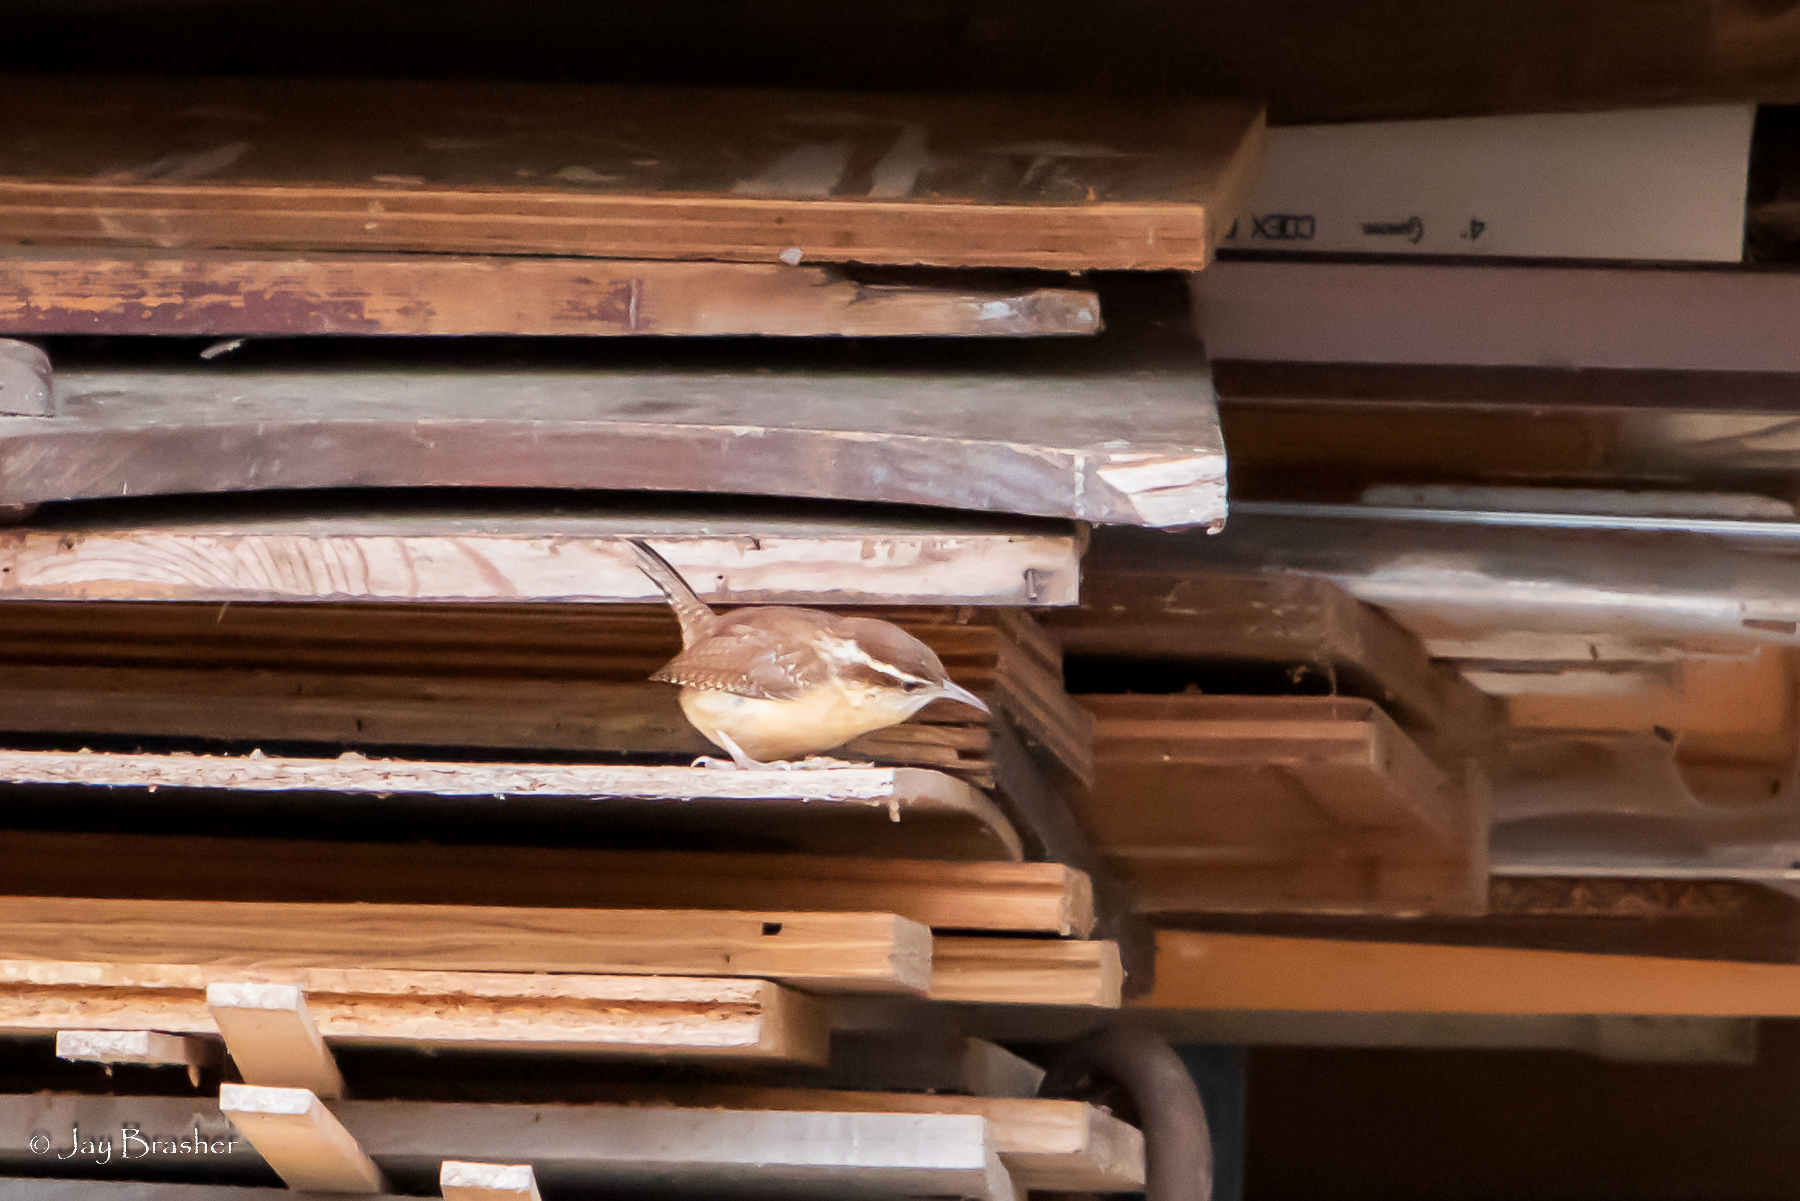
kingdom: Animalia
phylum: Chordata
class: Aves
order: Passeriformes
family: Troglodytidae
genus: Thryothorus
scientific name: Thryothorus ludovicianus
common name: Carolina wren
